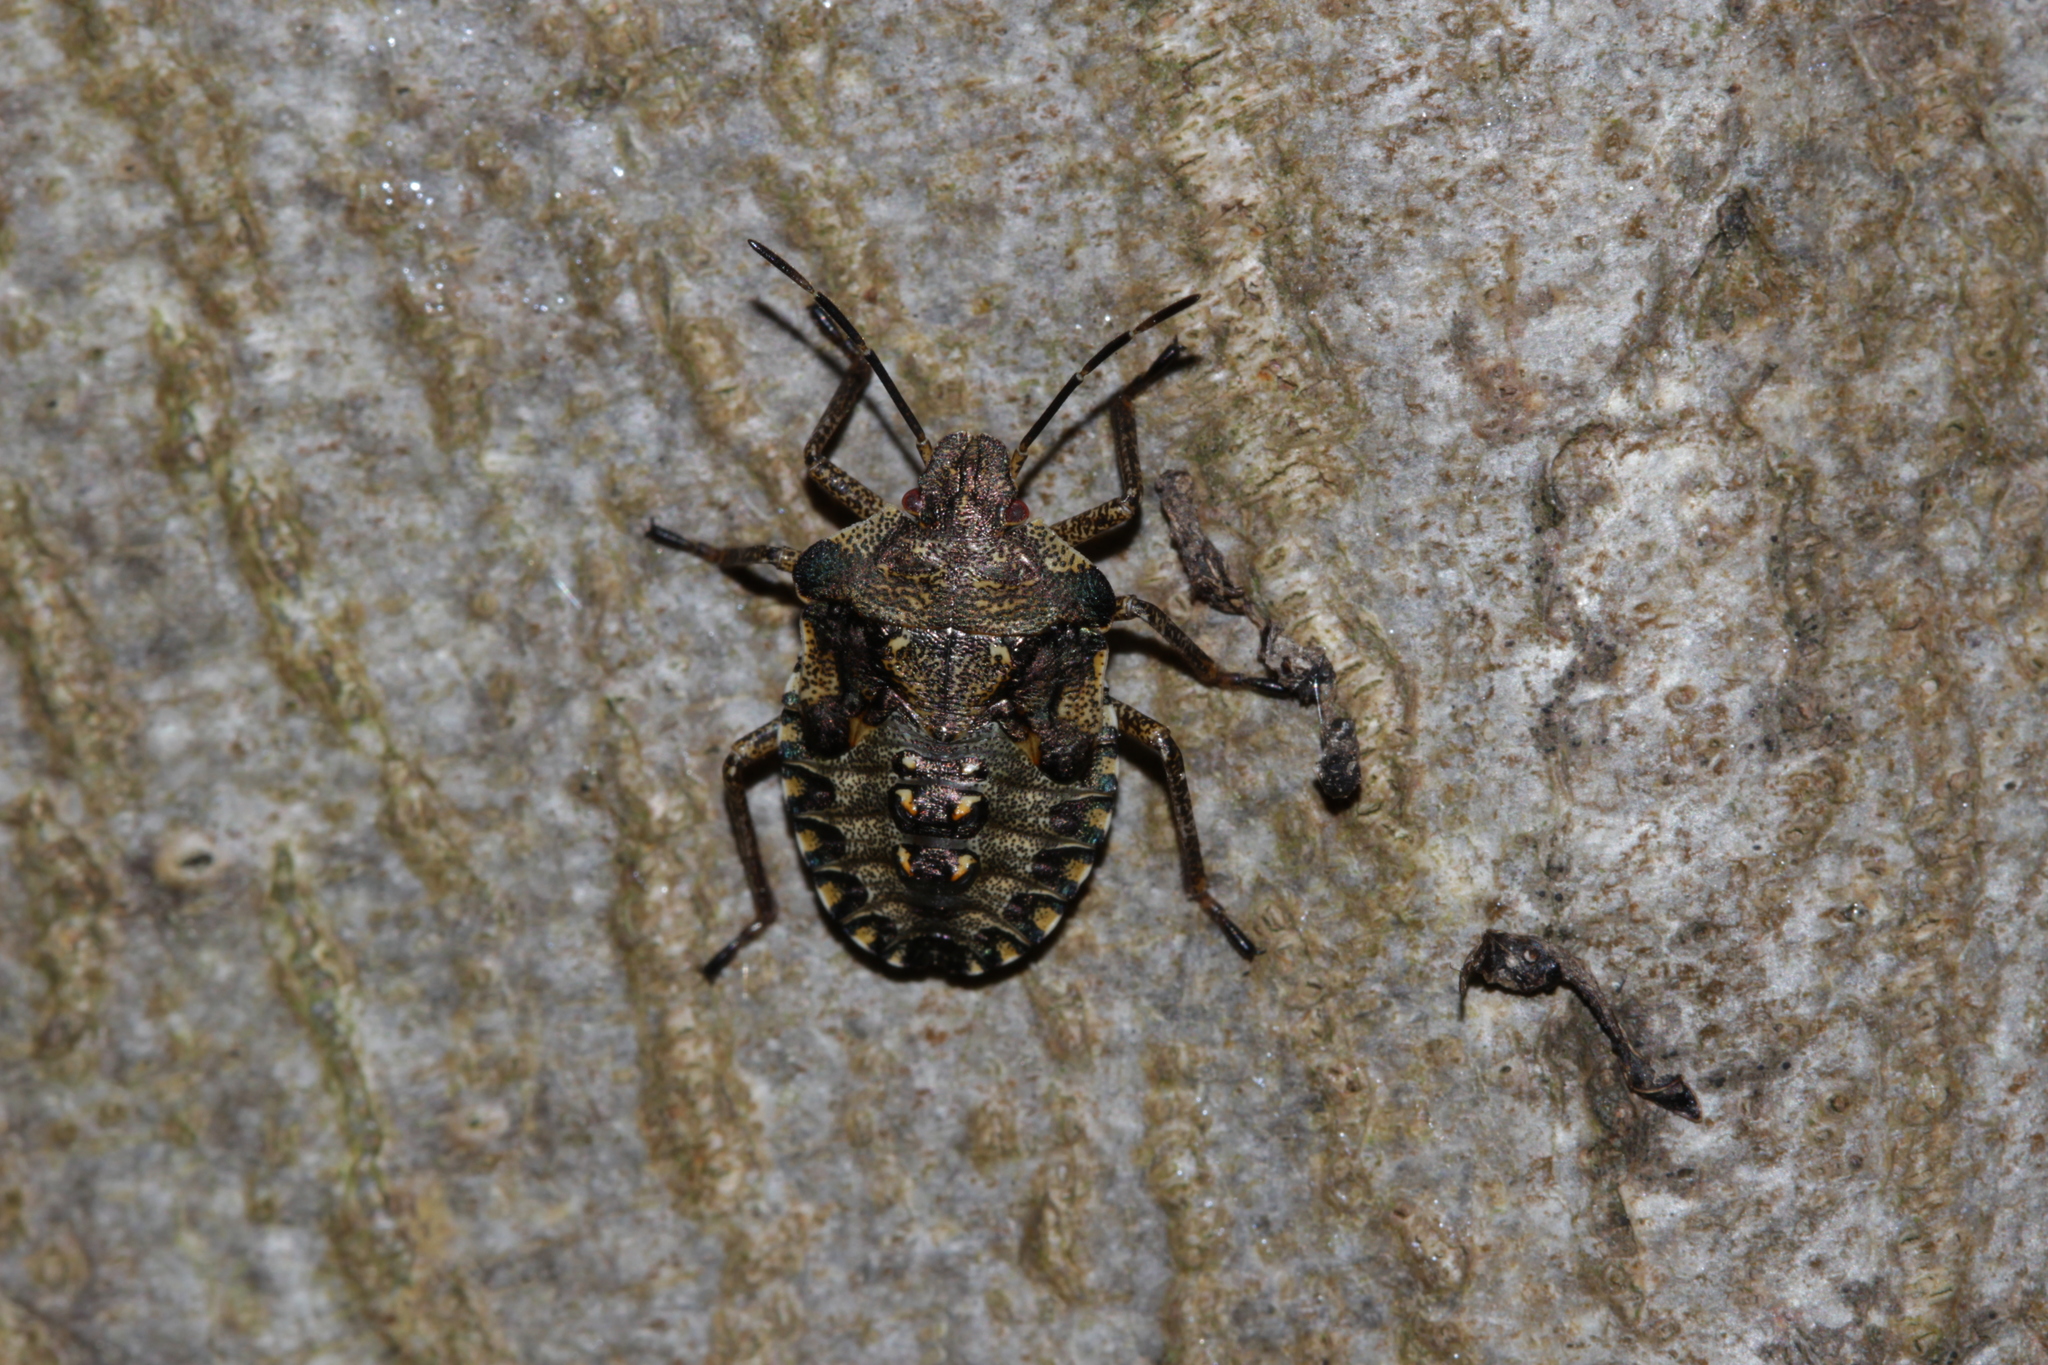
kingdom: Animalia
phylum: Arthropoda
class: Insecta
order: Hemiptera
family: Pentatomidae
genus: Pentatoma
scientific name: Pentatoma rufipes
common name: Forest bug
